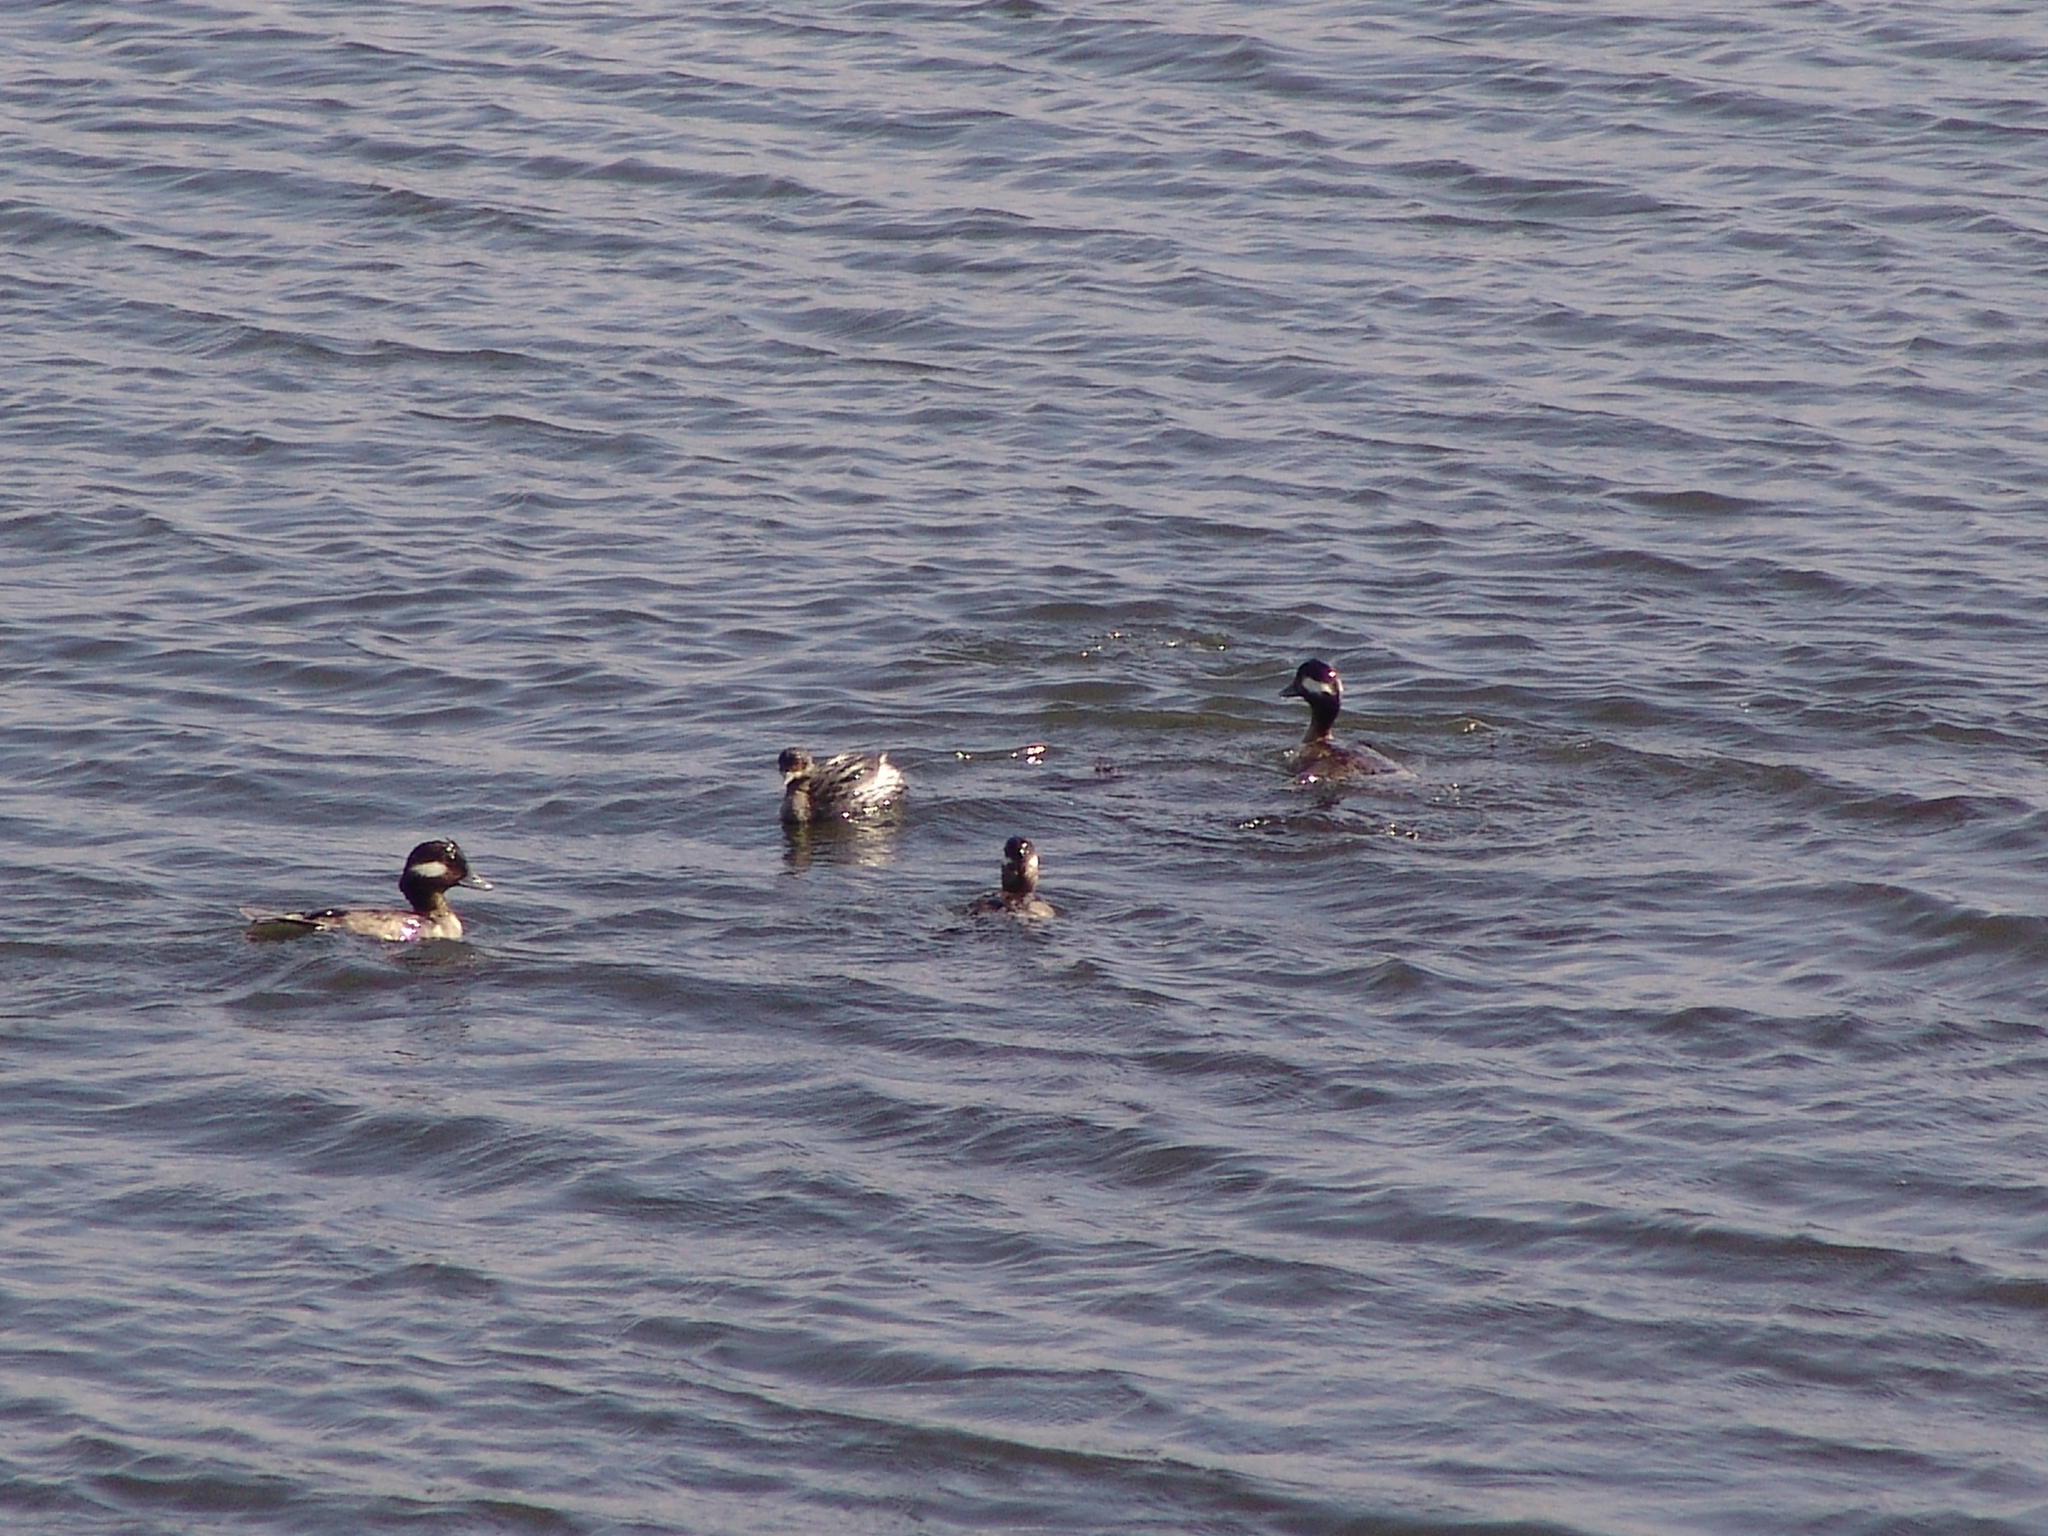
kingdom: Animalia
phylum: Chordata
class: Aves
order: Anseriformes
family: Anatidae
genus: Bucephala
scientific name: Bucephala albeola
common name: Bufflehead
